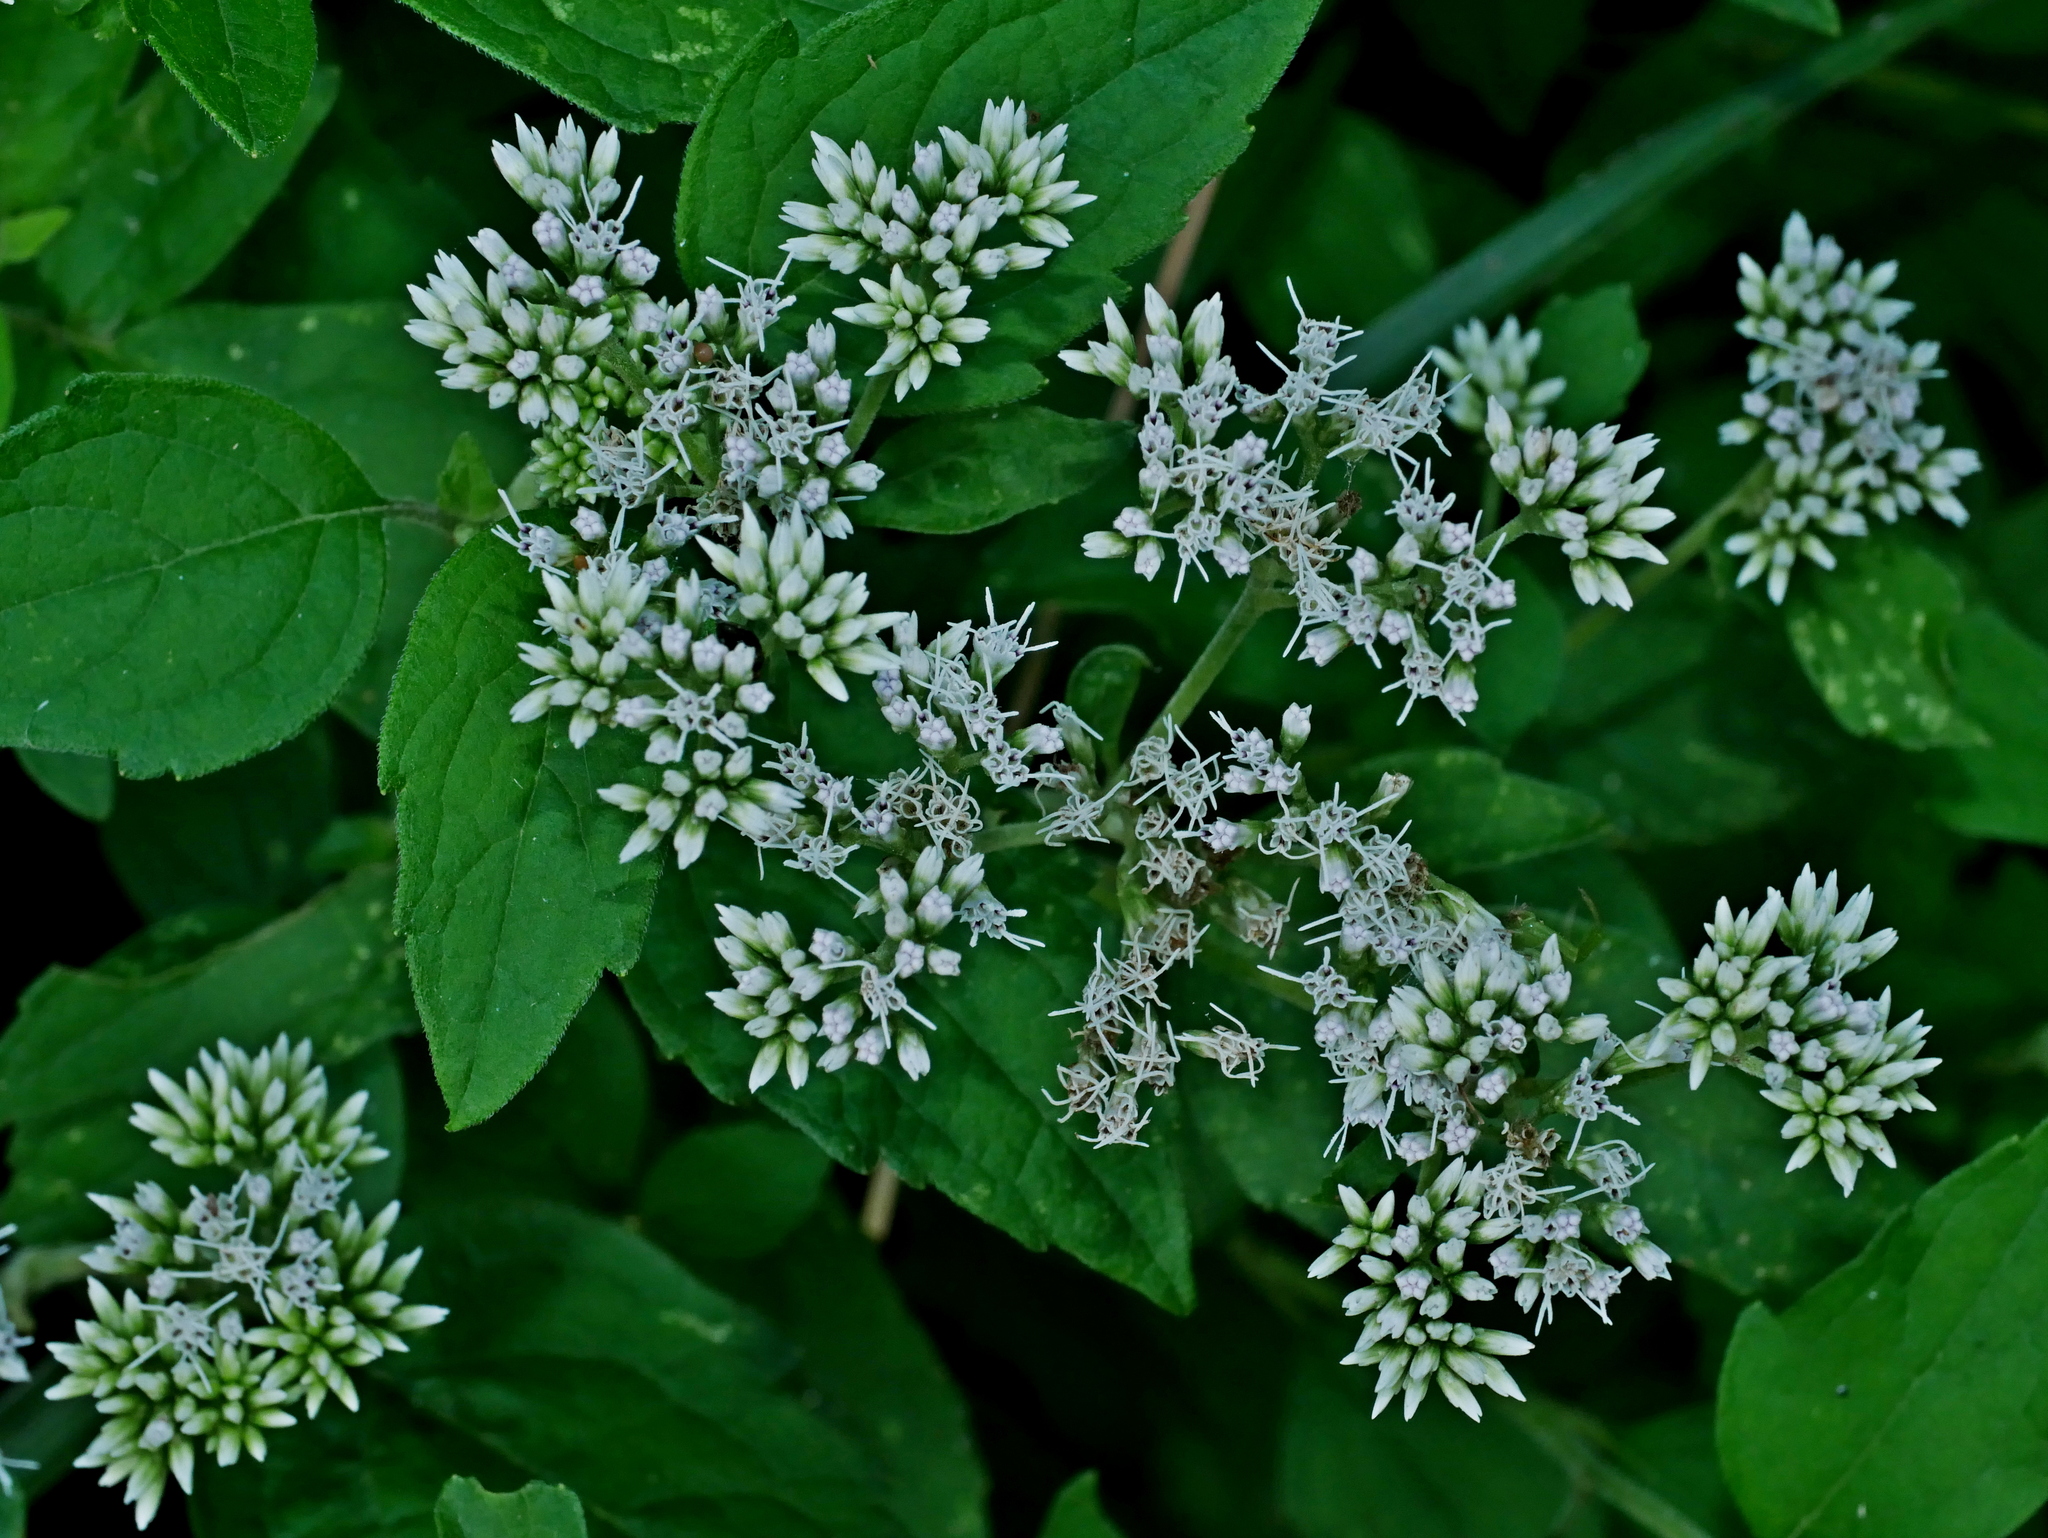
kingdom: Plantae
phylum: Tracheophyta
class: Magnoliopsida
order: Asterales
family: Asteraceae
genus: Eupatorium
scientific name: Eupatorium formosanum
